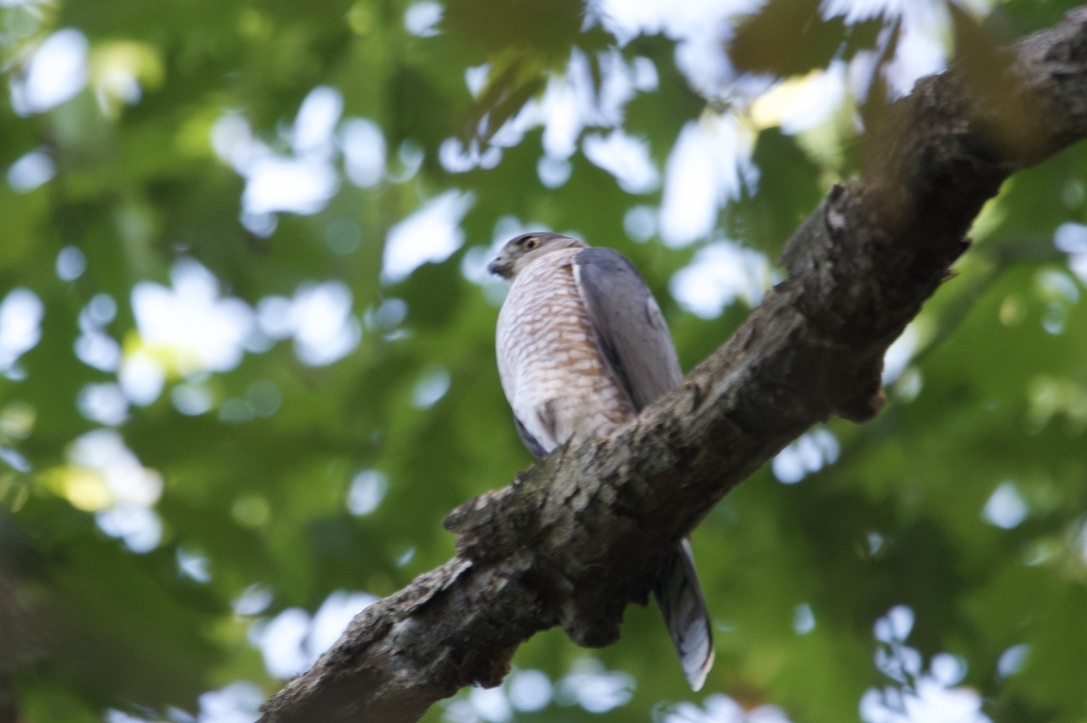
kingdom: Animalia
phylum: Chordata
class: Aves
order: Accipitriformes
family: Accipitridae
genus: Accipiter
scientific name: Accipiter cooperii
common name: Cooper's hawk
